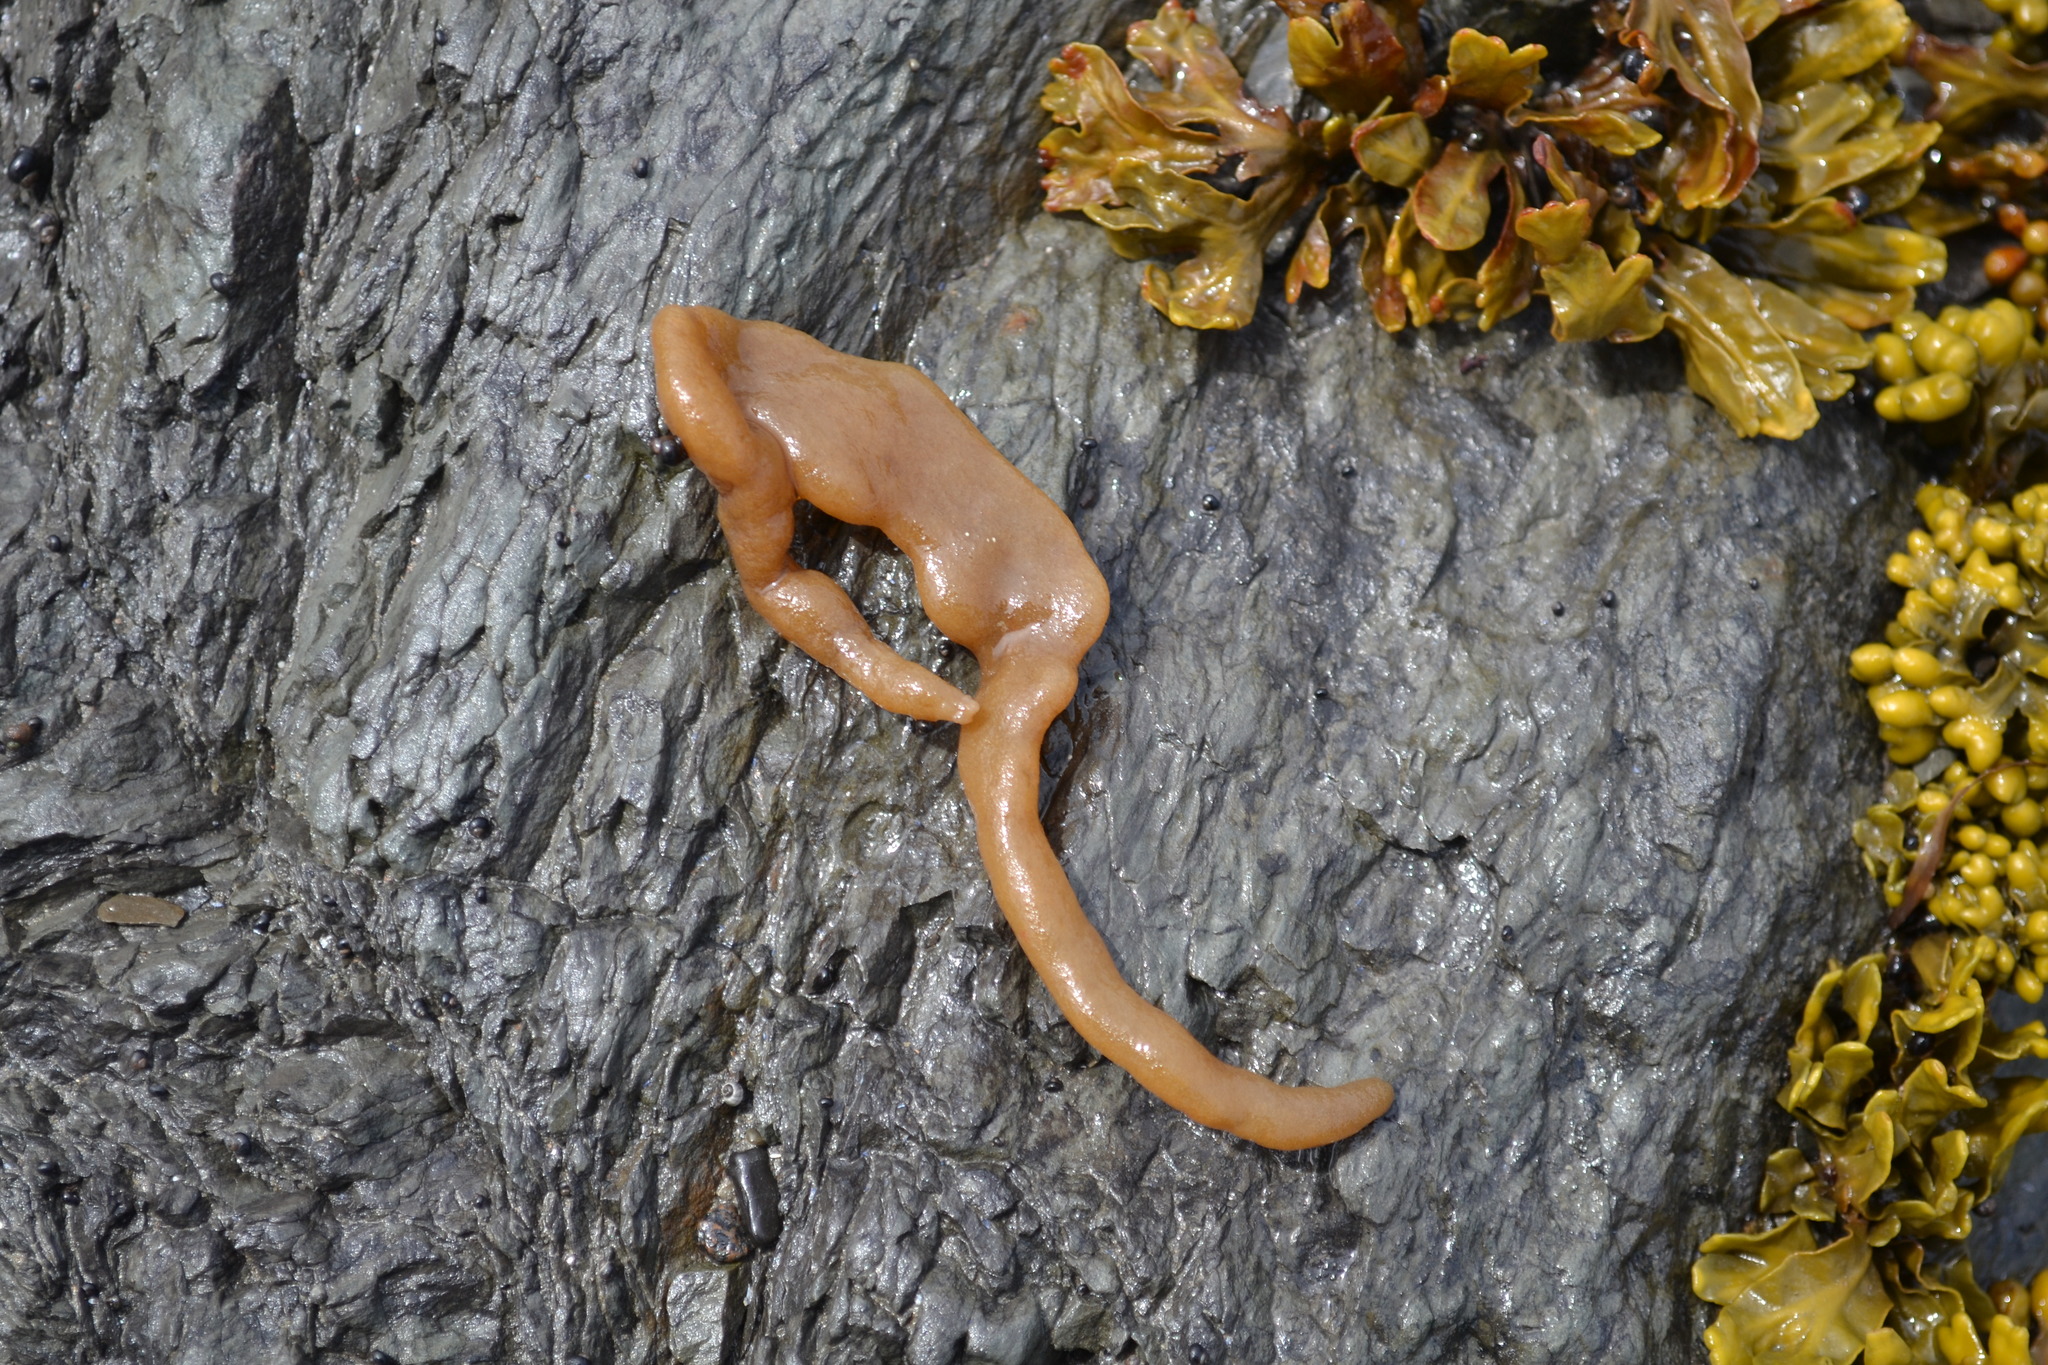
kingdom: Animalia
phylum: Bryozoa
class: Gymnolaemata
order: Ctenostomatida
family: Alcyonidiidae
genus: Alcyonidium
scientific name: Alcyonidium pachydermatum
